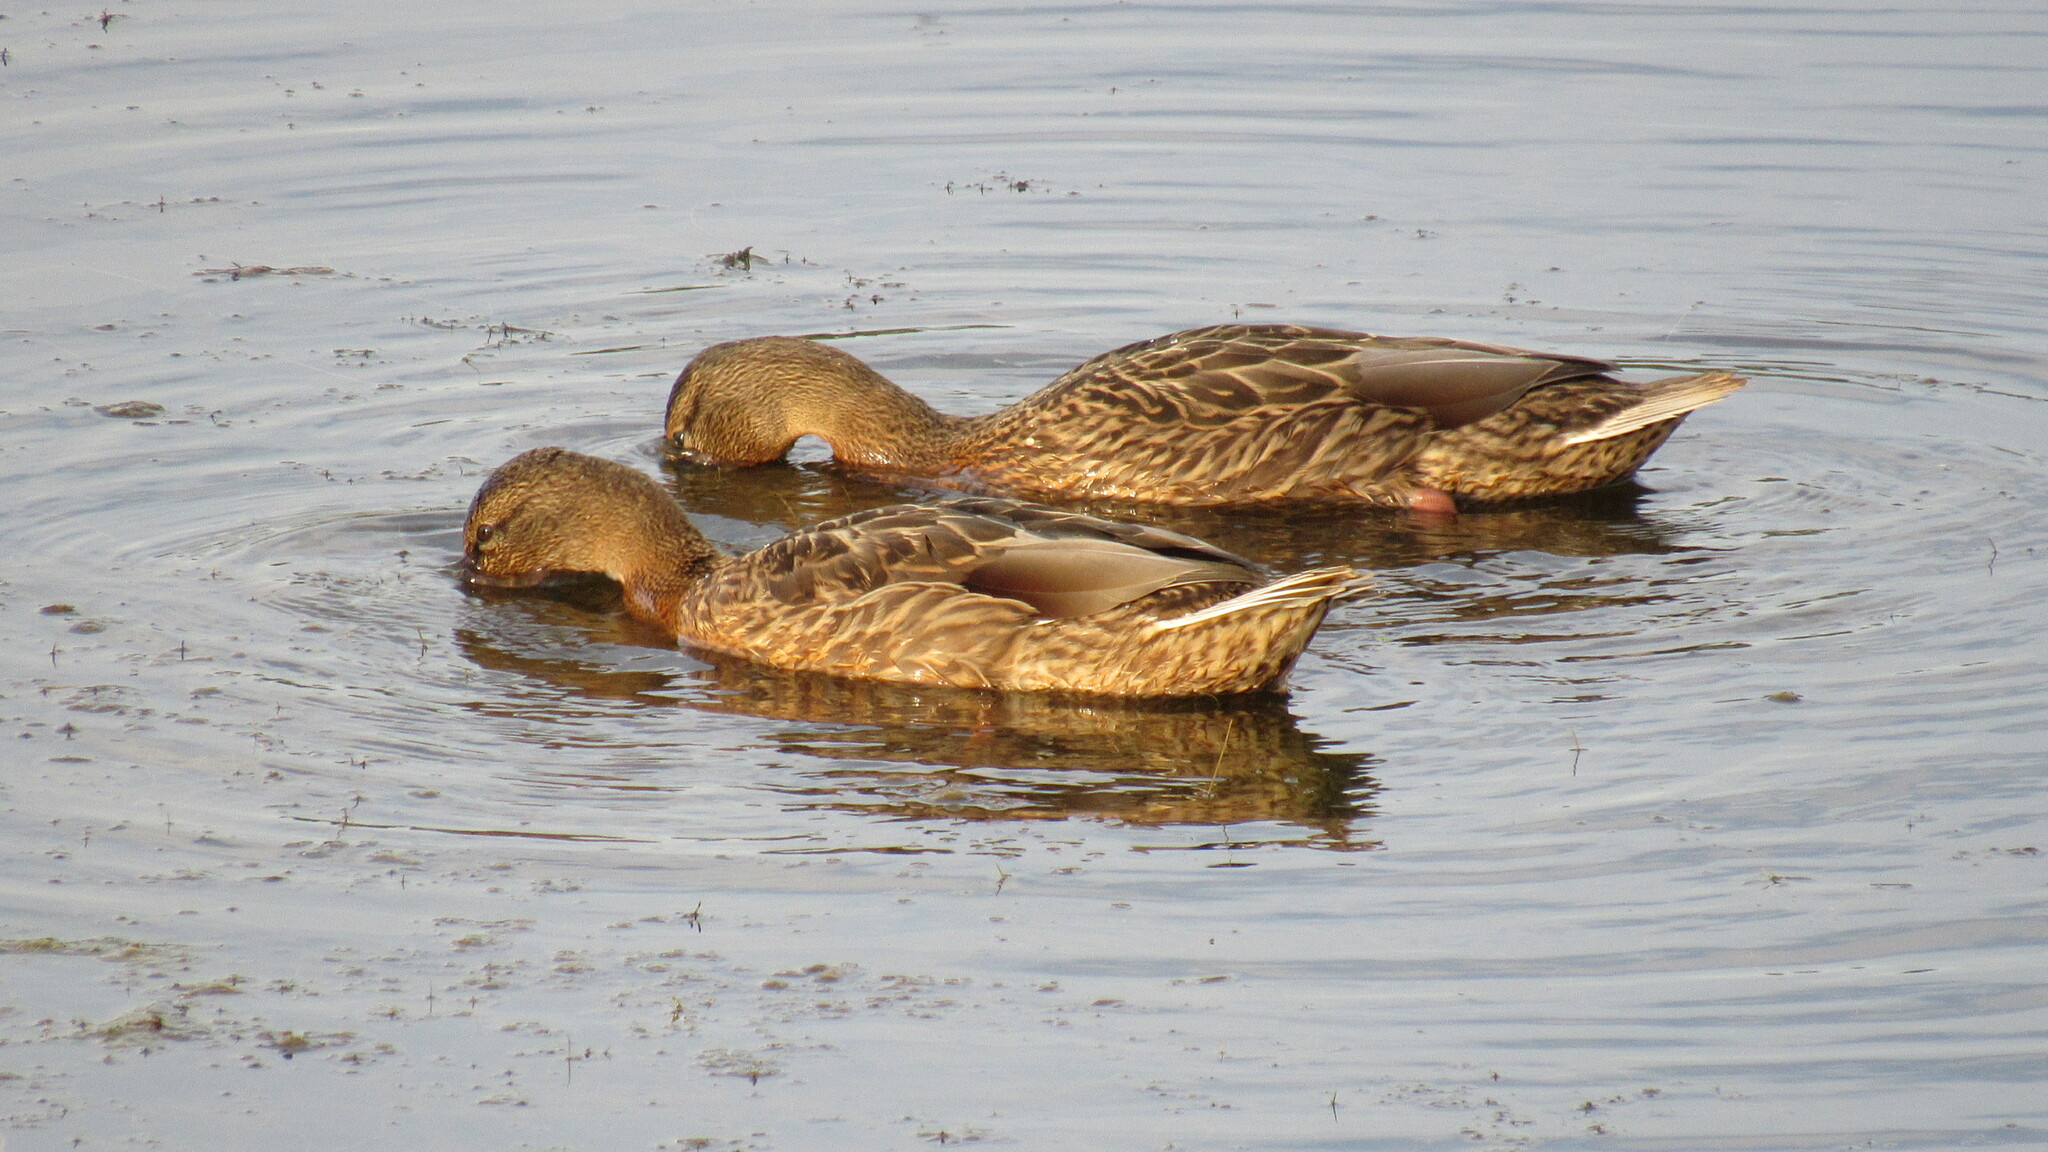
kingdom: Animalia
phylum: Chordata
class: Aves
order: Anseriformes
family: Anatidae
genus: Anas
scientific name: Anas platyrhynchos
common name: Mallard
